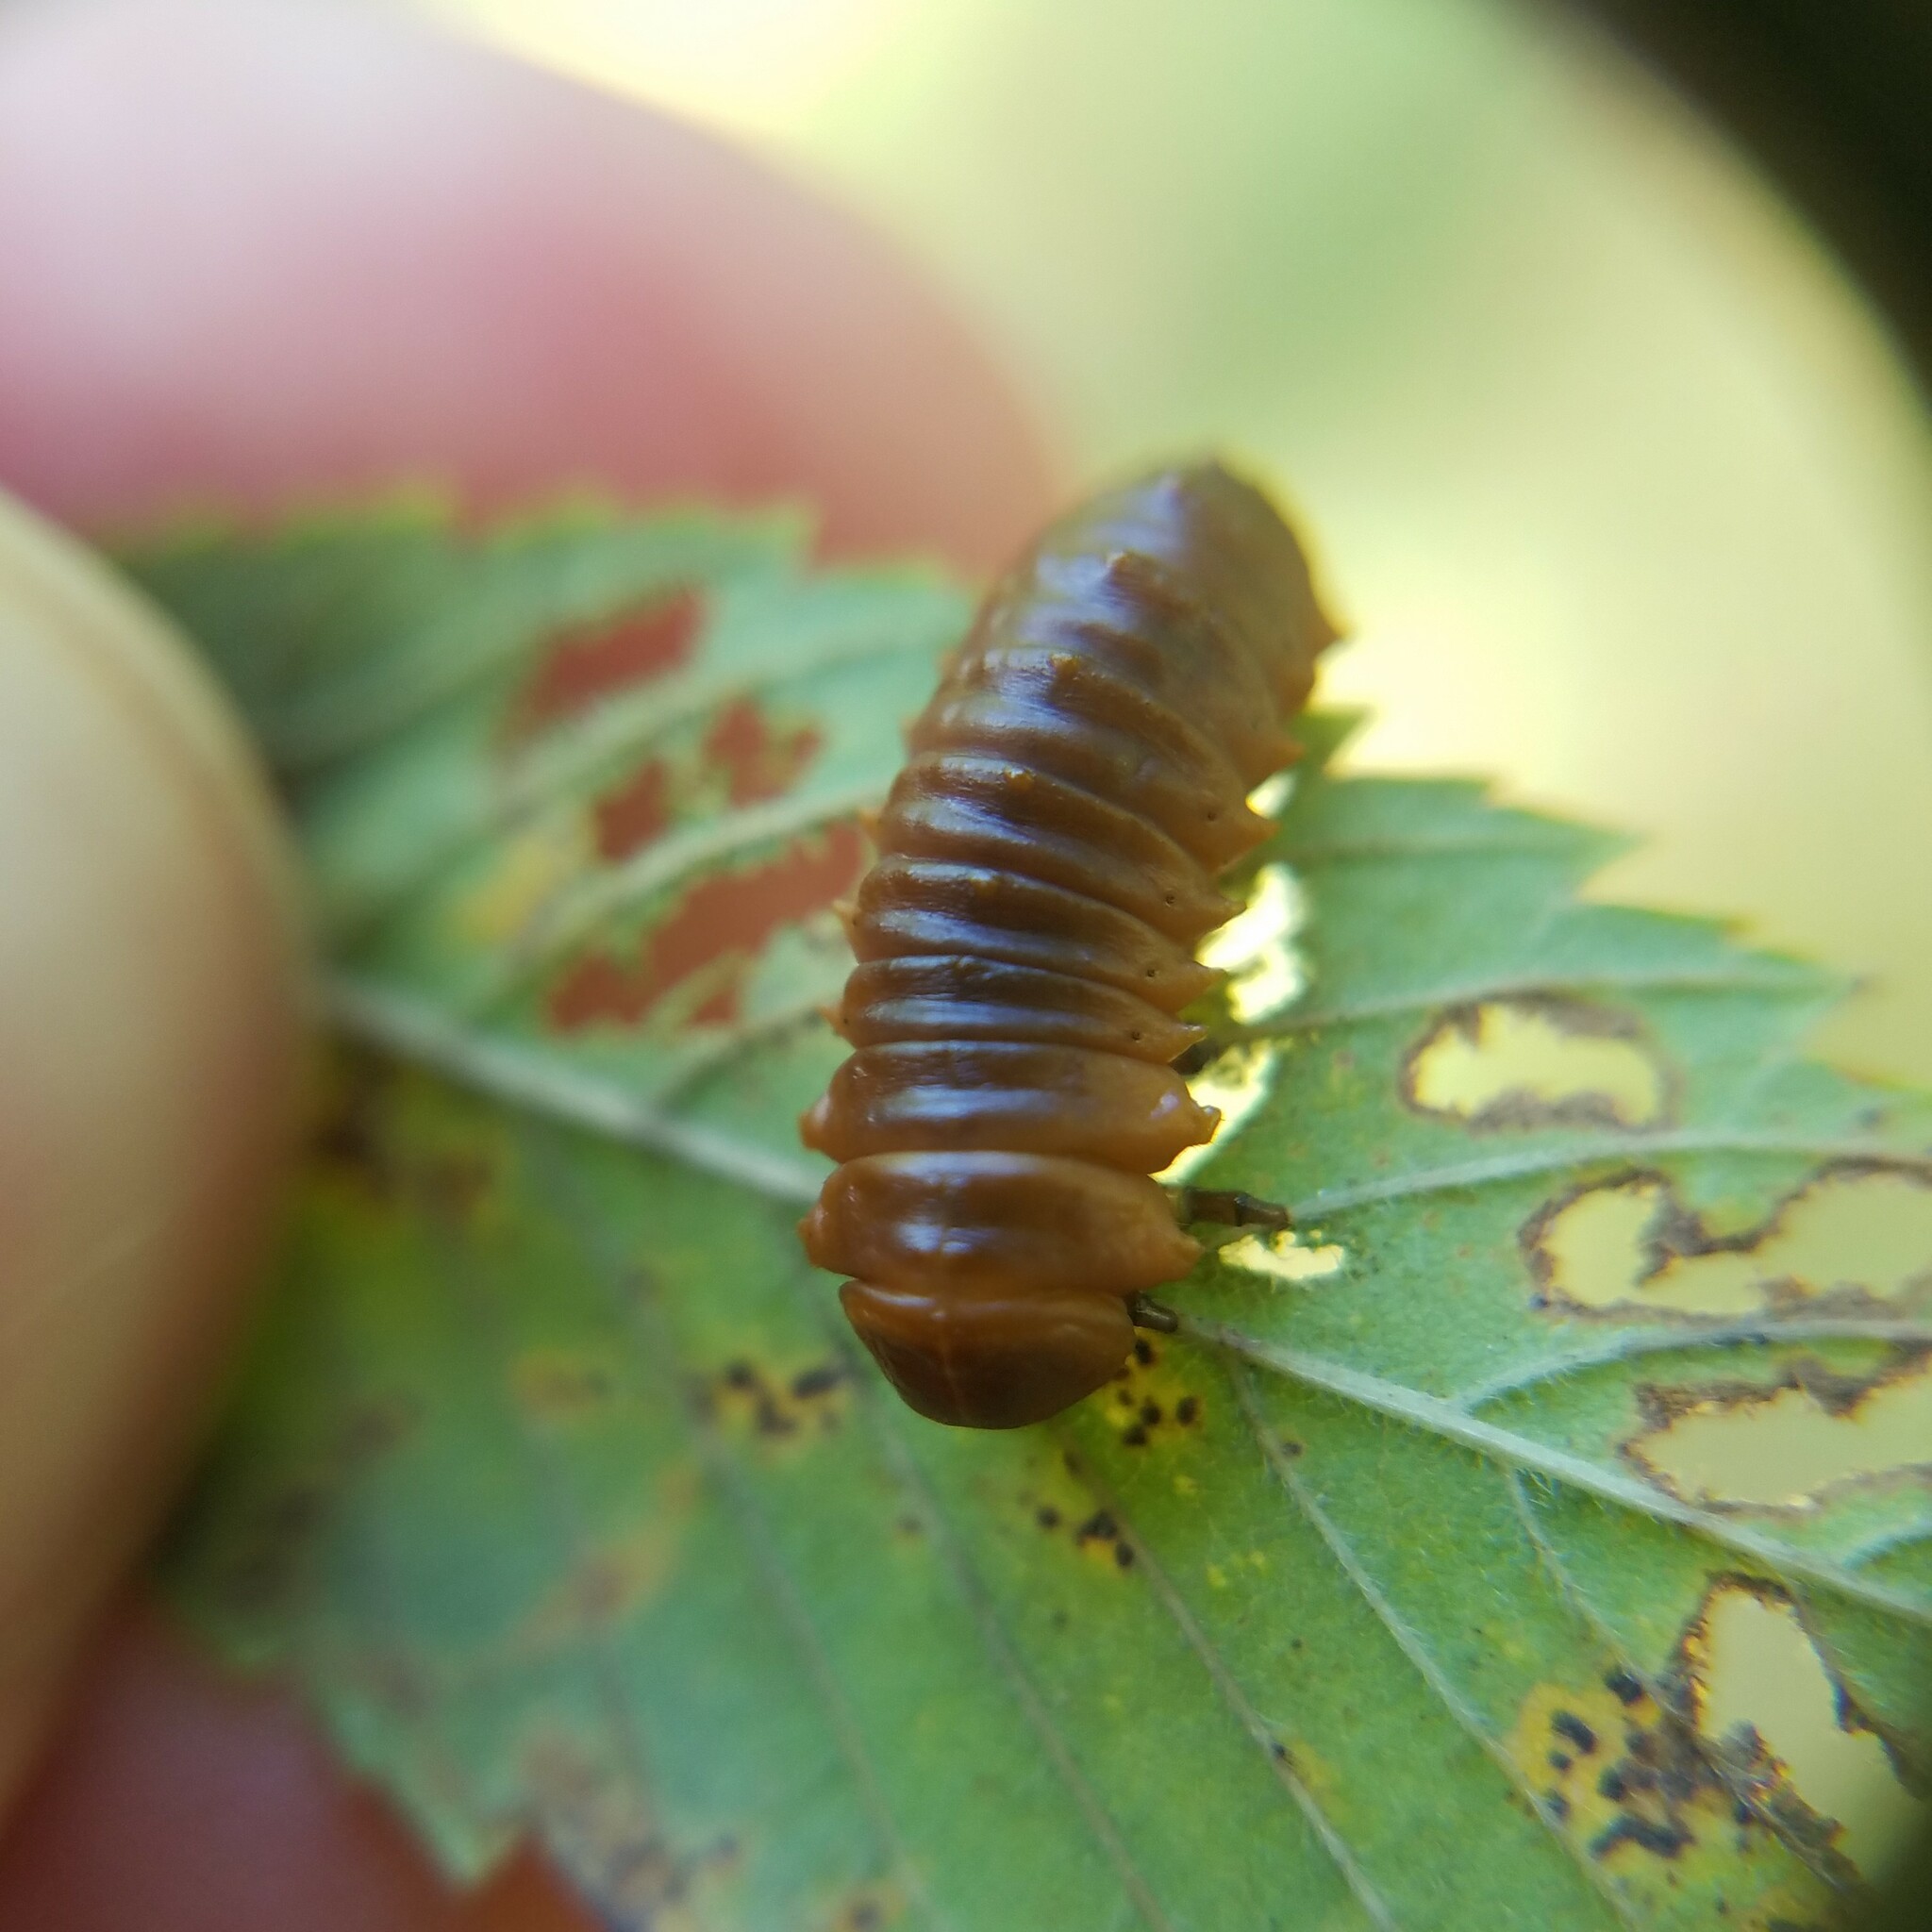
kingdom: Animalia
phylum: Arthropoda
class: Insecta
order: Coleoptera
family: Chrysomelidae
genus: Monocesta
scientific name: Monocesta coryli
